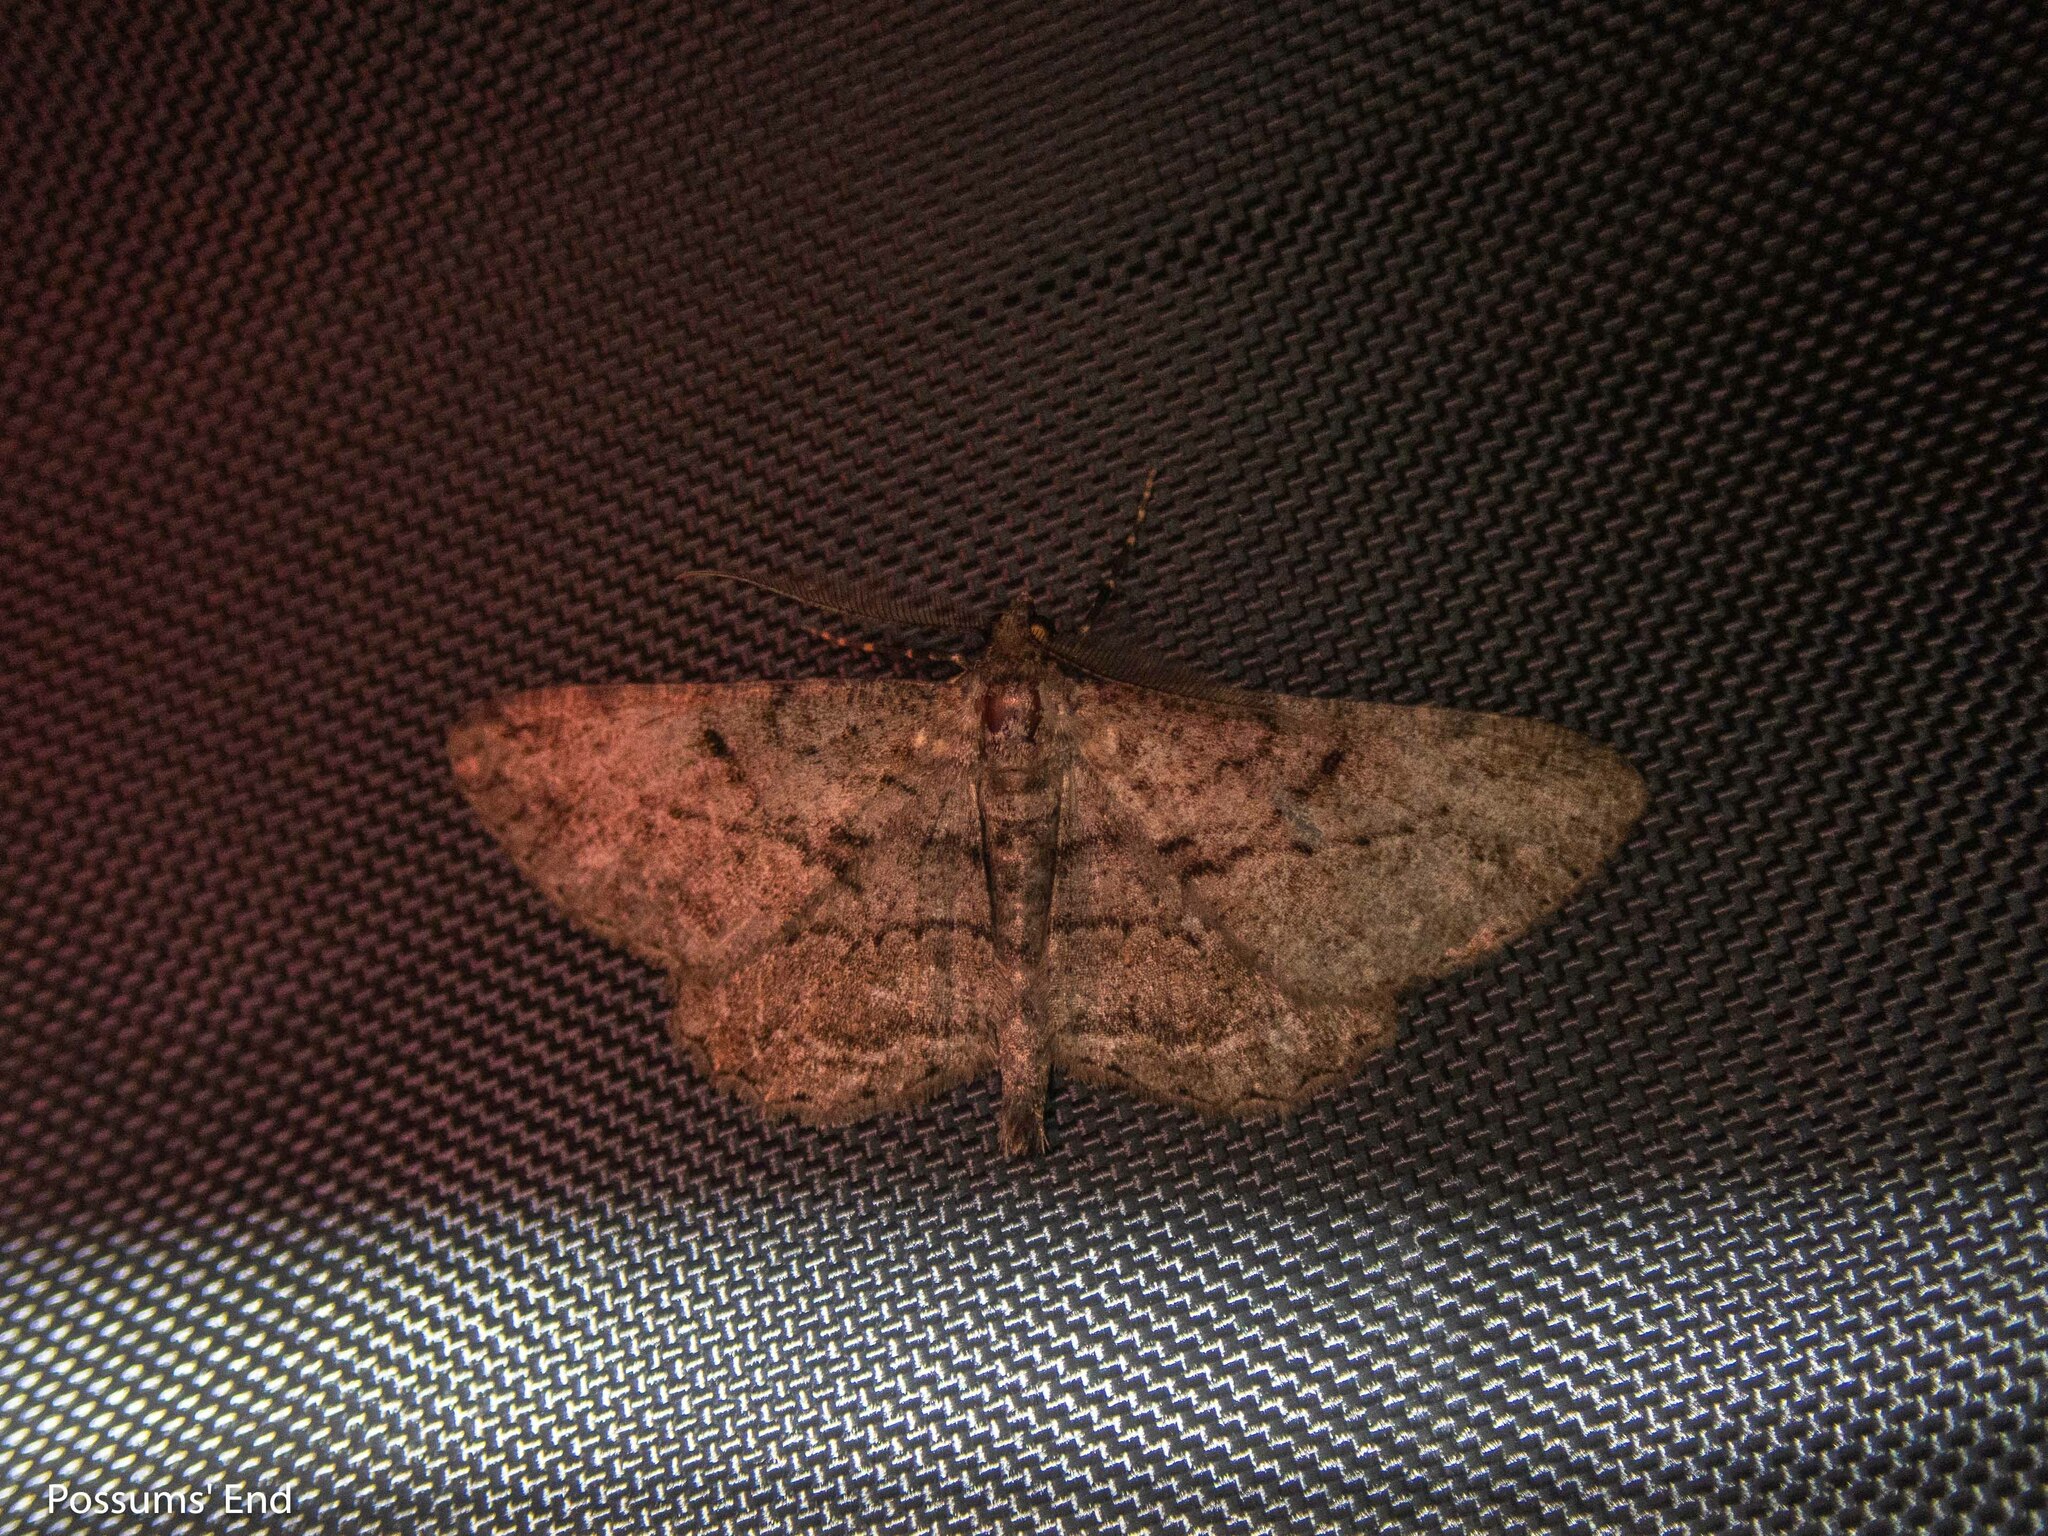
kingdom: Animalia
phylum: Arthropoda
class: Insecta
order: Lepidoptera
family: Geometridae
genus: Peribatodes
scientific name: Peribatodes rhomboidaria
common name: Willow beauty
